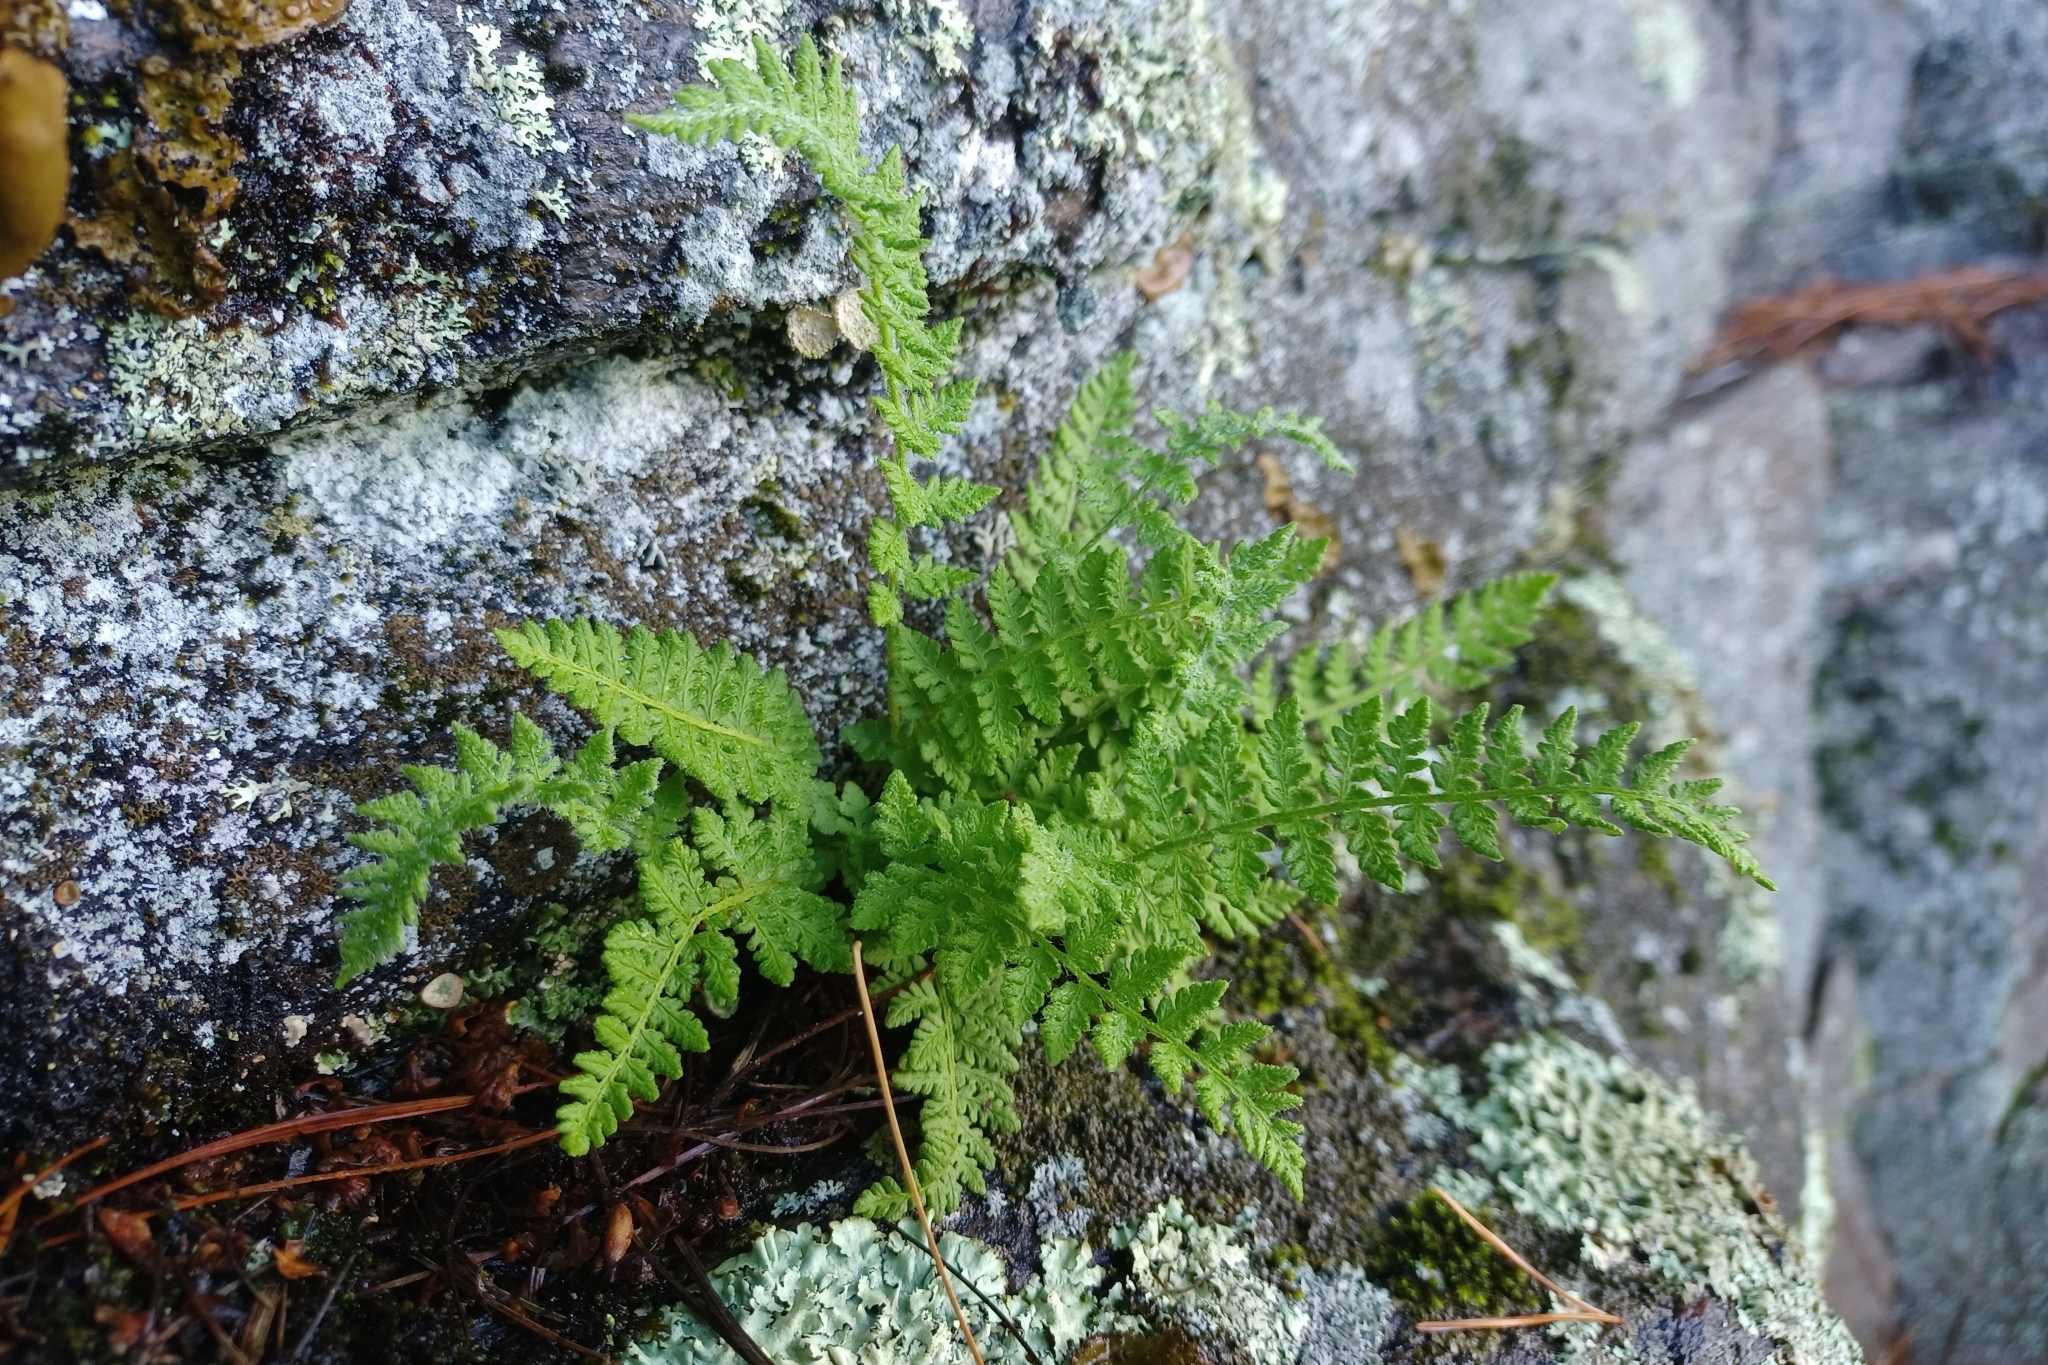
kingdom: Plantae
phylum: Tracheophyta
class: Polypodiopsida
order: Polypodiales
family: Woodsiaceae
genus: Woodsia
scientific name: Woodsia ilvensis
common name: Fragrant woodsia
